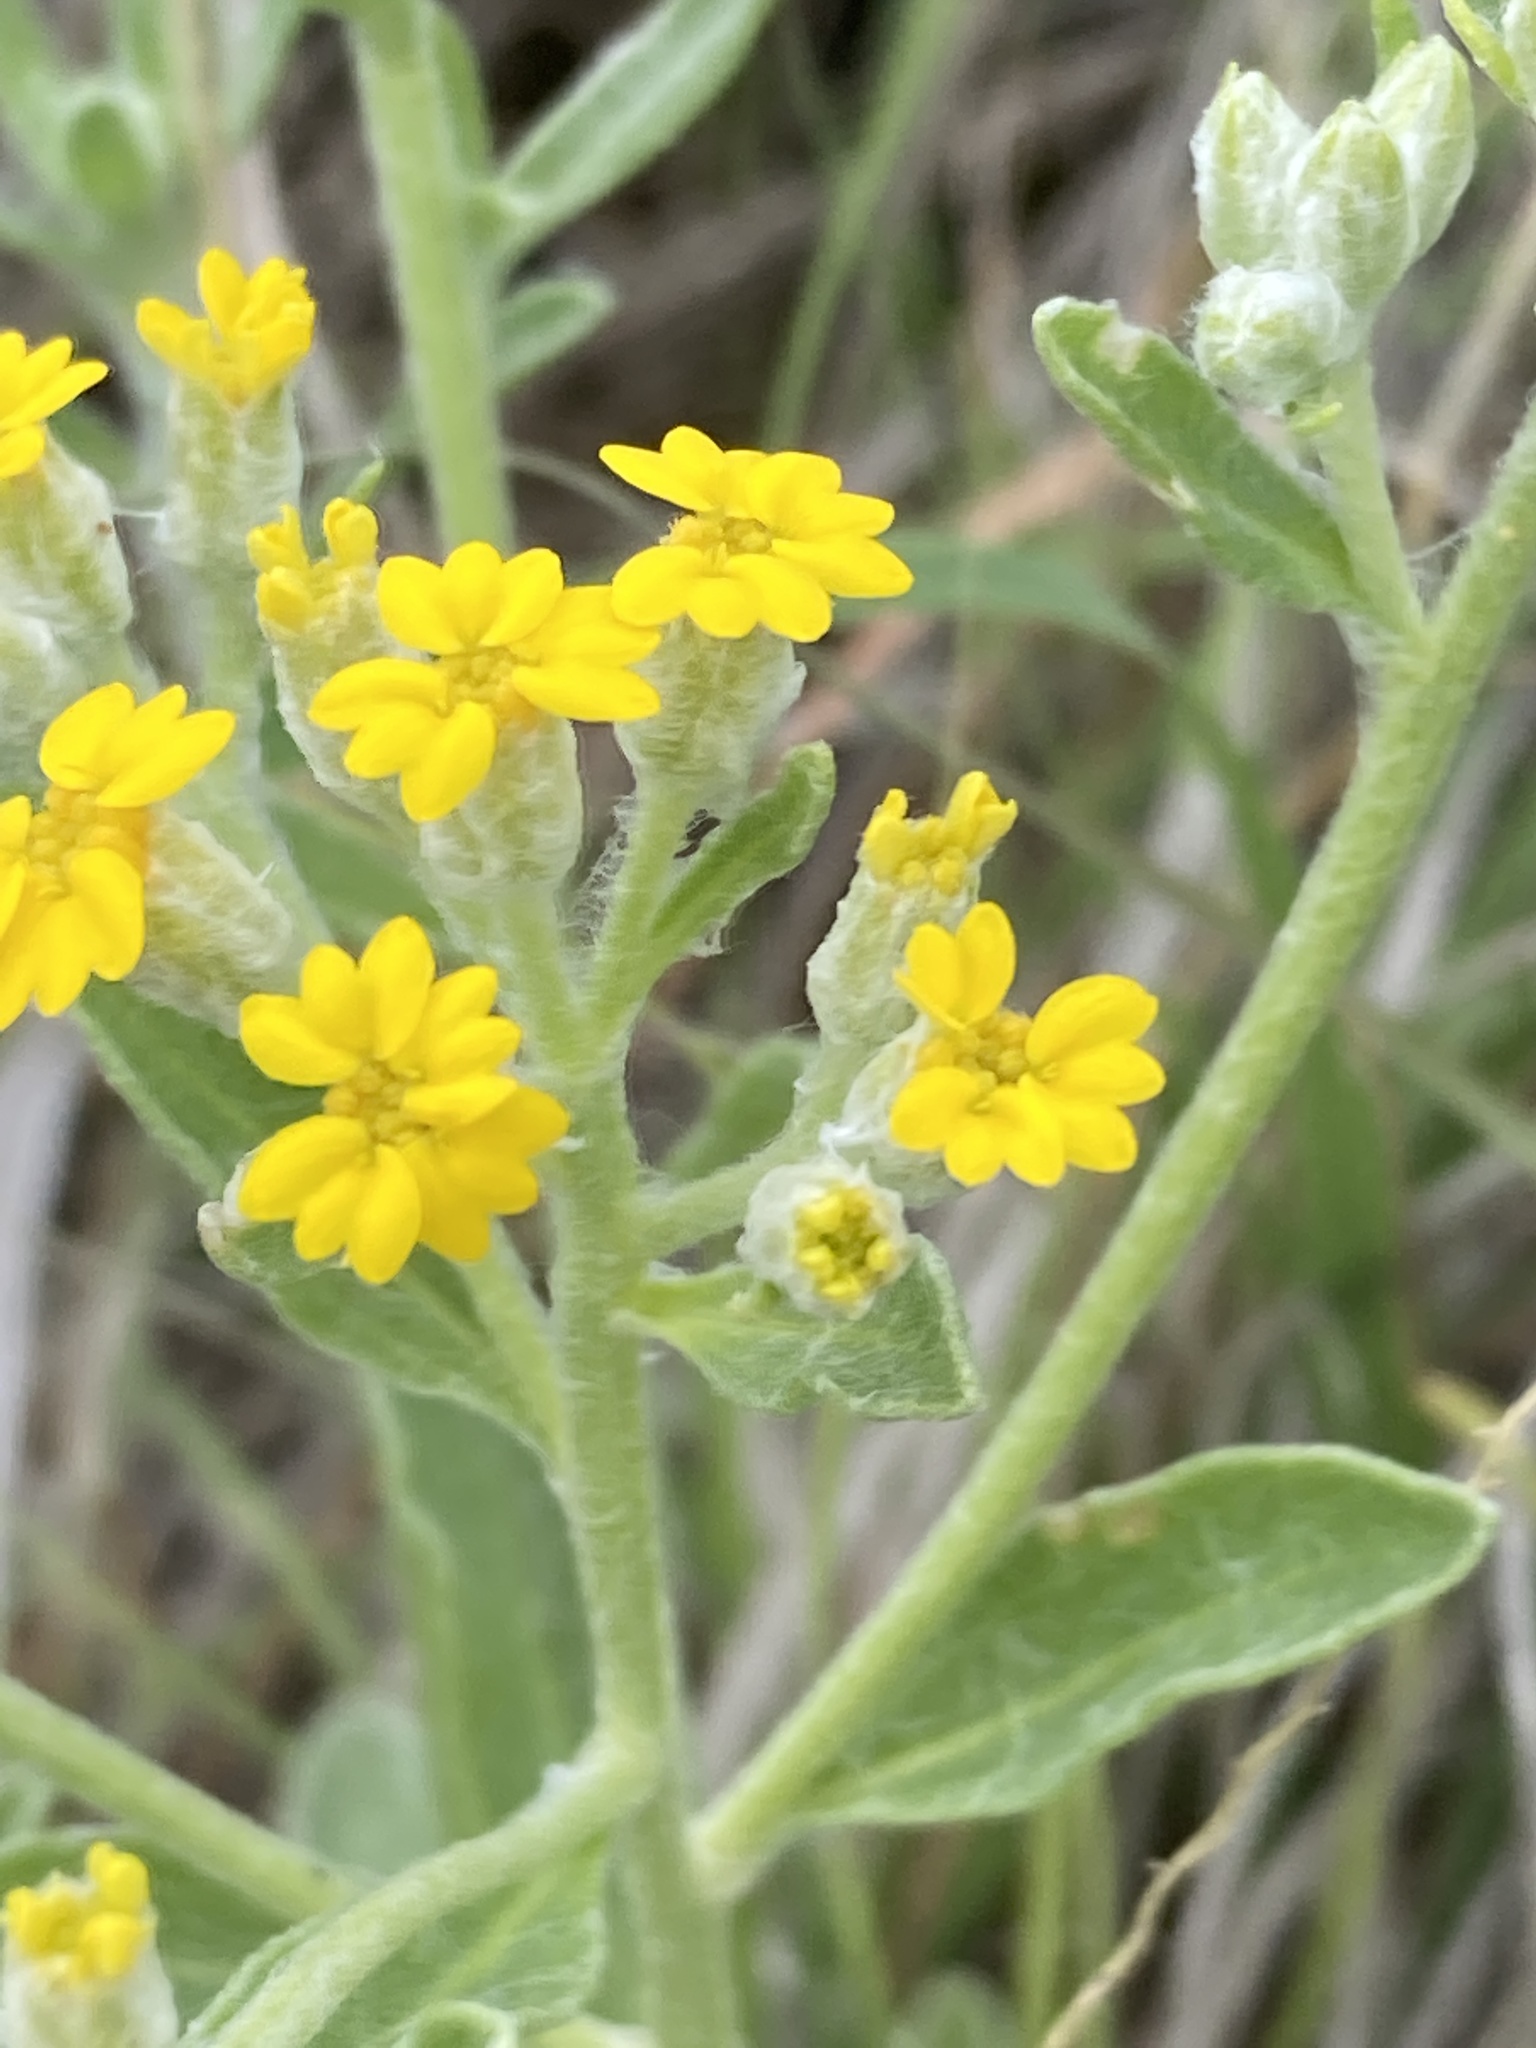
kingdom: Plantae
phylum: Tracheophyta
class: Magnoliopsida
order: Asterales
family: Asteraceae
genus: Psilostrophe
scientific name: Psilostrophe villosa
